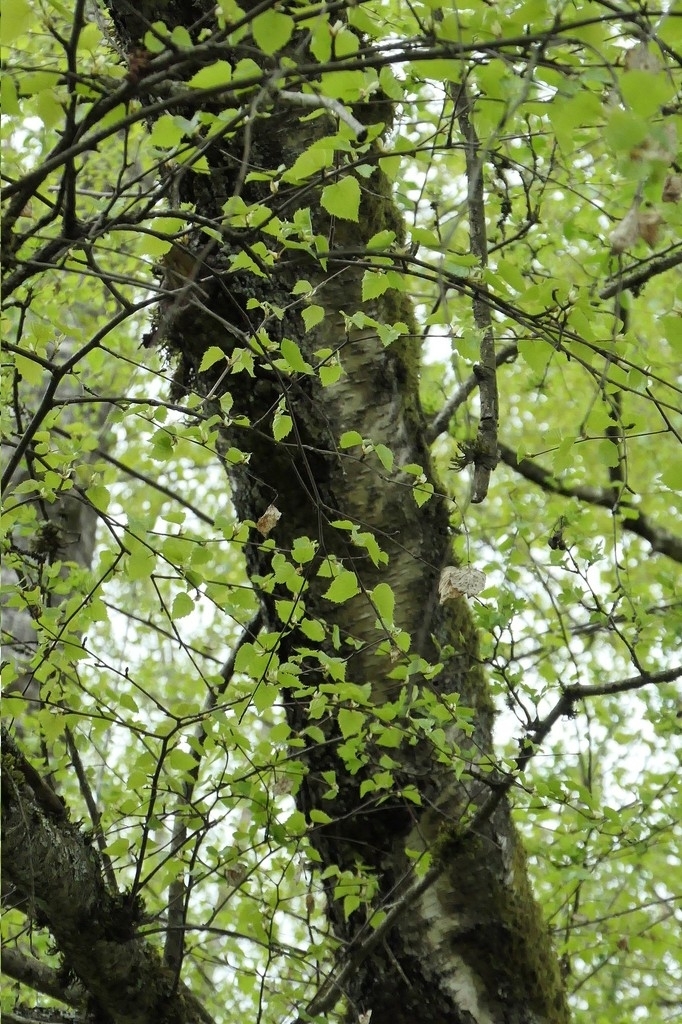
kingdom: Plantae
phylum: Tracheophyta
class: Magnoliopsida
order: Fagales
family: Betulaceae
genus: Betula
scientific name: Betula pendula
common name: Silver birch
